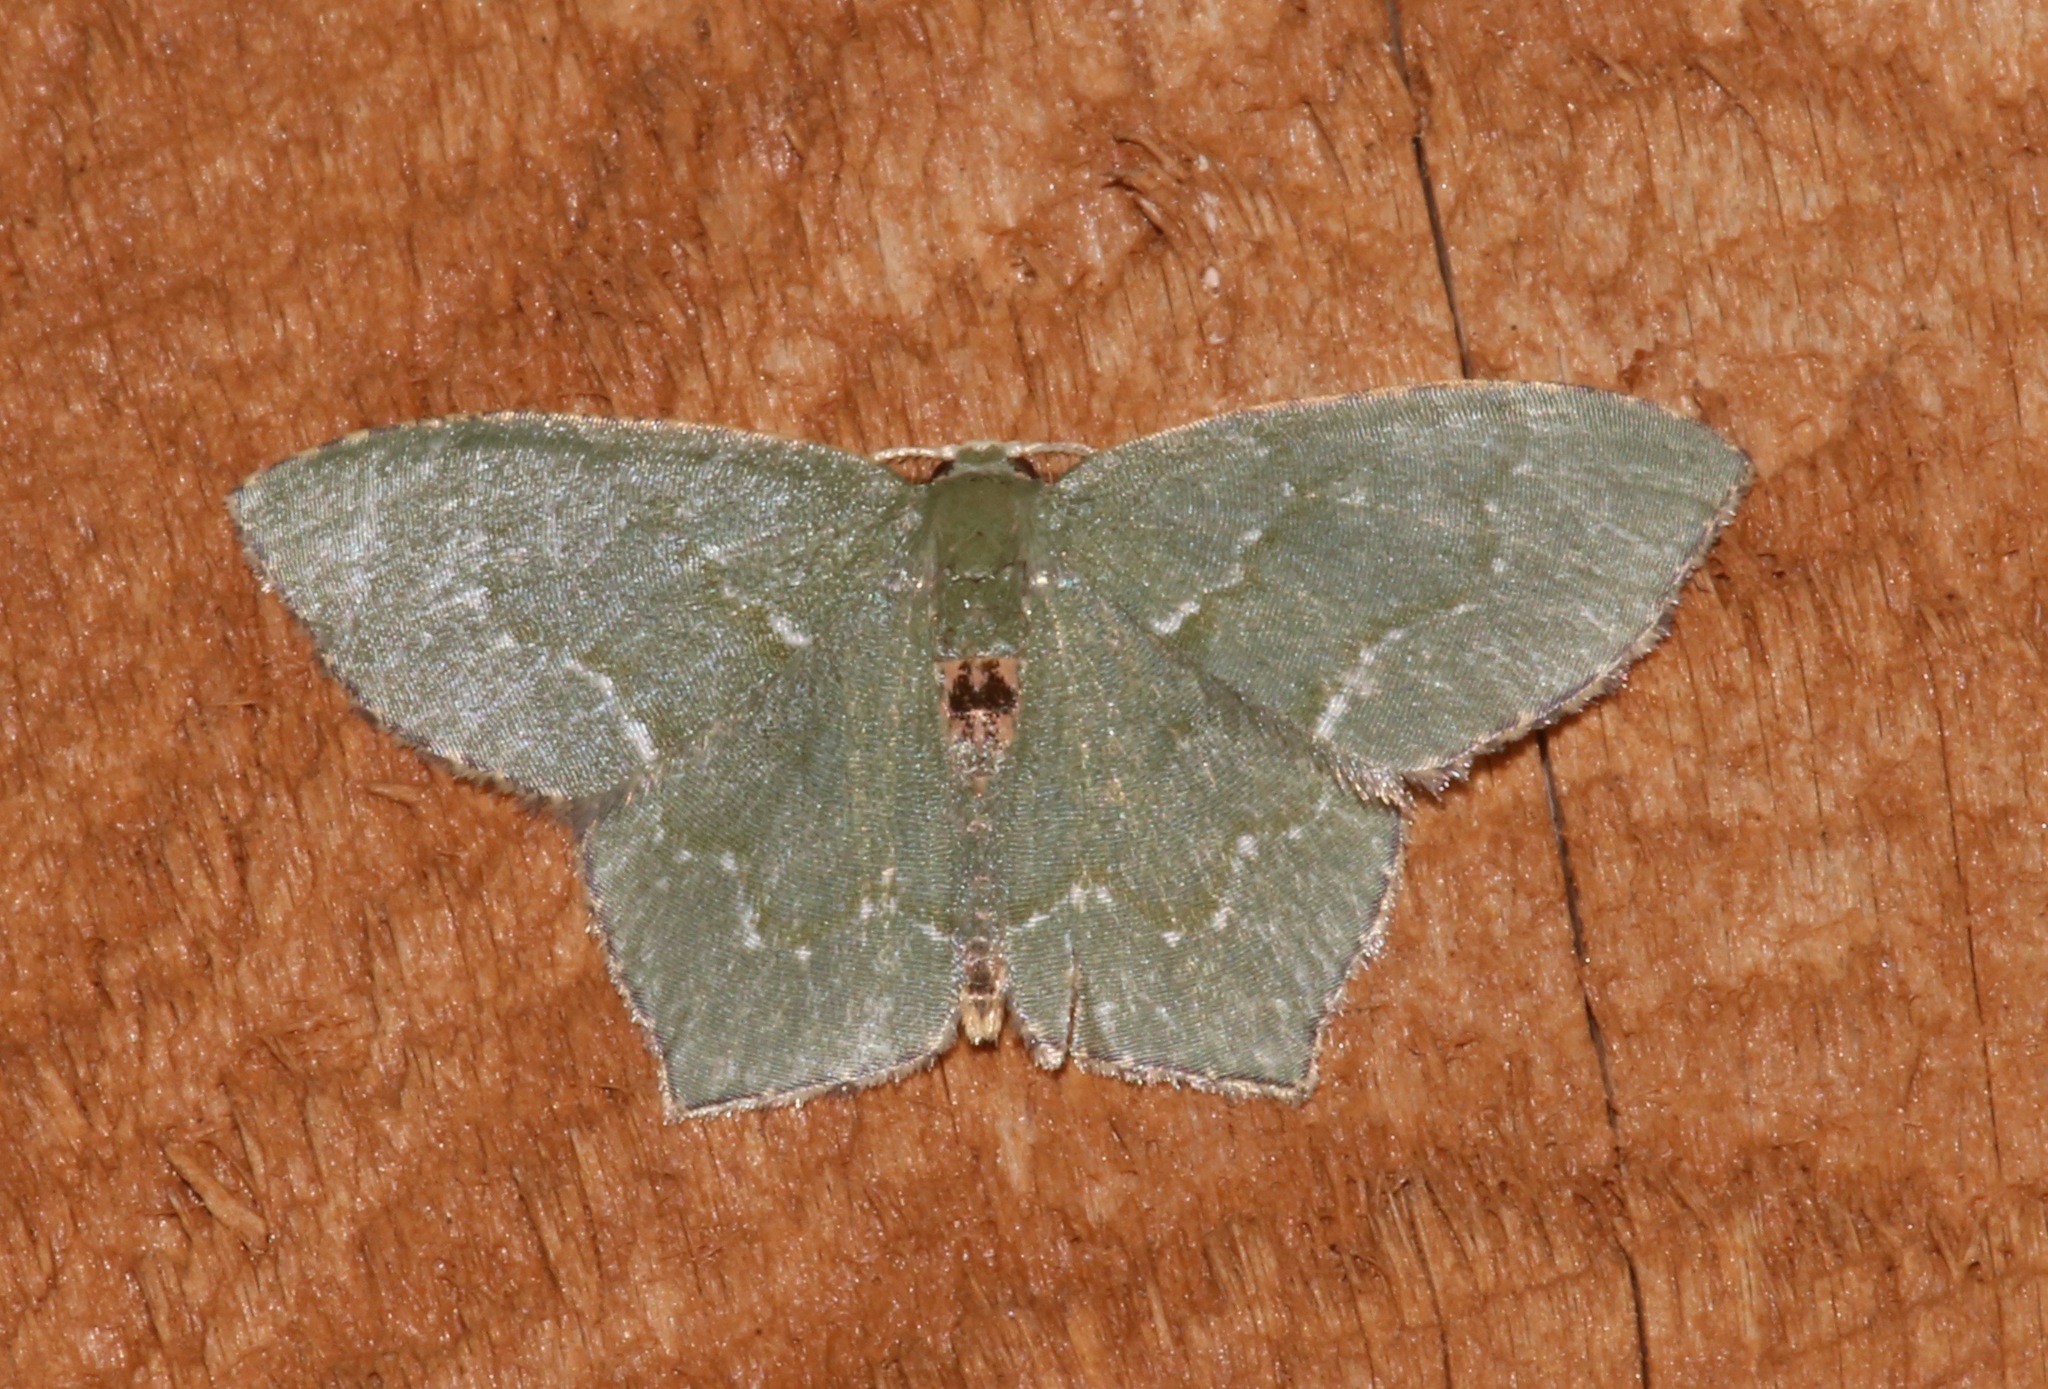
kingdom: Animalia
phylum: Arthropoda
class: Insecta
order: Lepidoptera
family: Geometridae
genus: Chloropteryx
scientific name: Chloropteryx tepperaria
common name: Angle winged emerald moth
